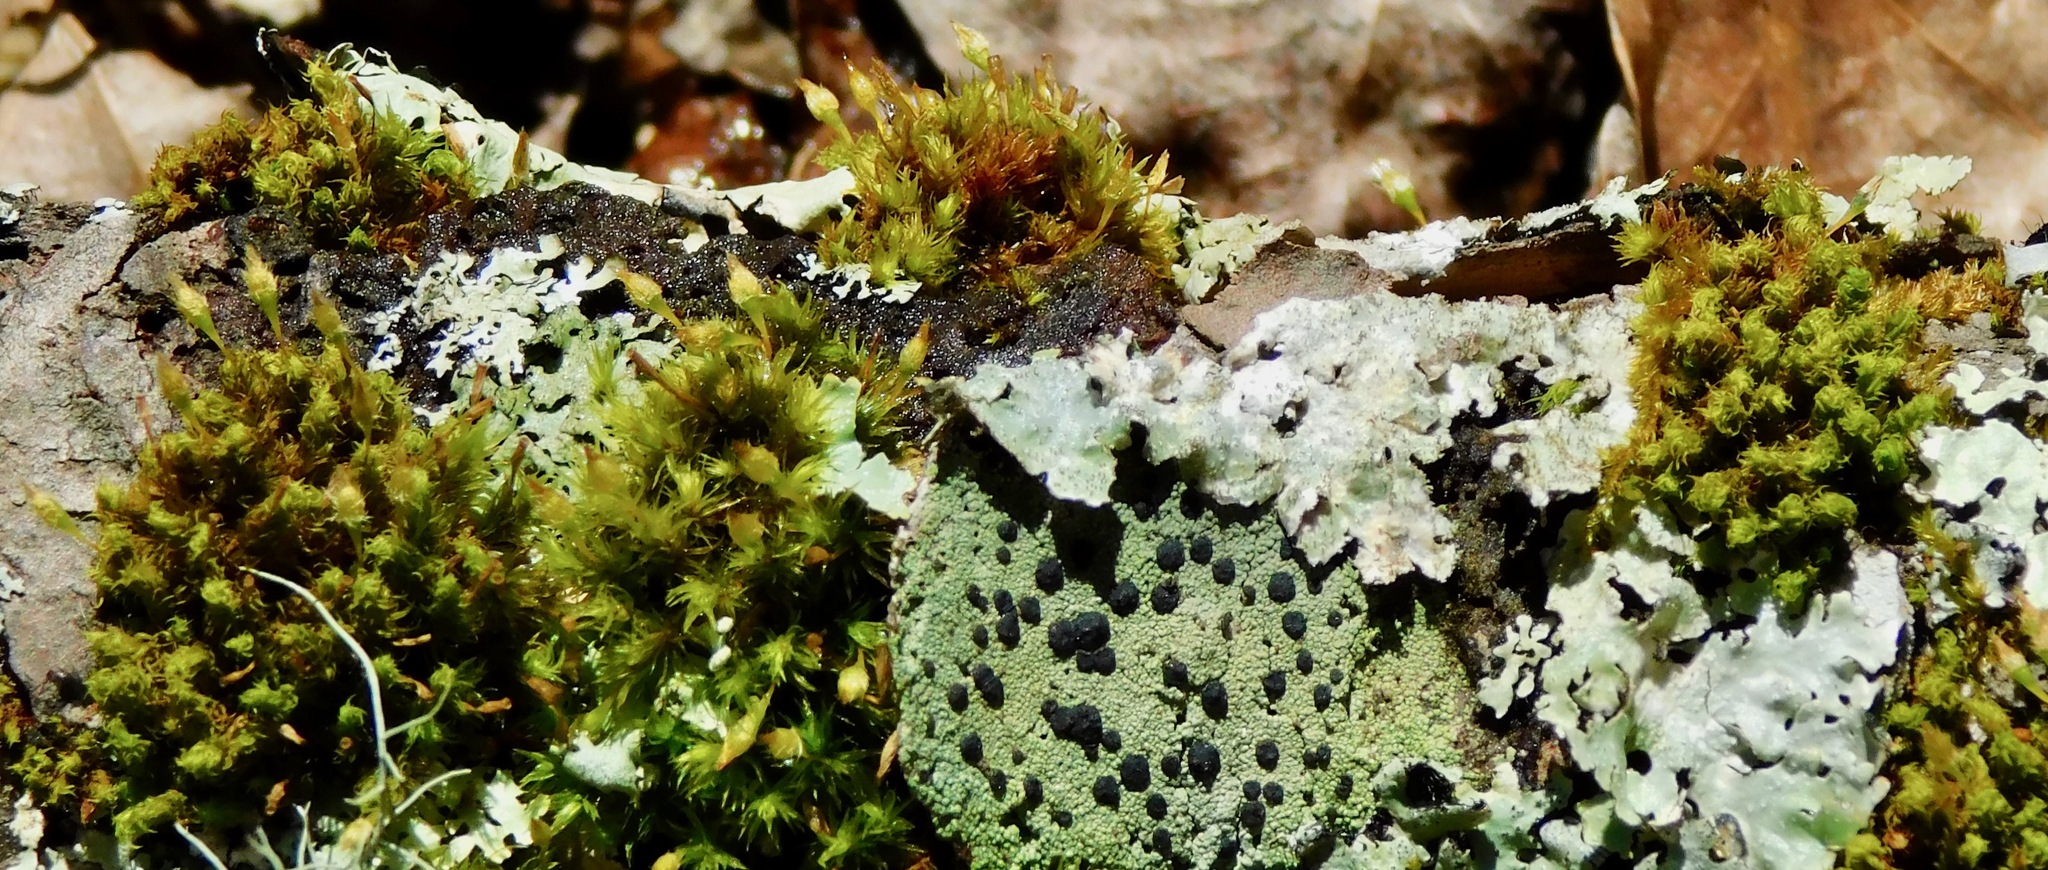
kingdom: Plantae
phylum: Bryophyta
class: Bryopsida
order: Orthotrichales
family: Orthotrichaceae
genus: Ulota
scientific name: Ulota crispa
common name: Crisped pincushion moss
